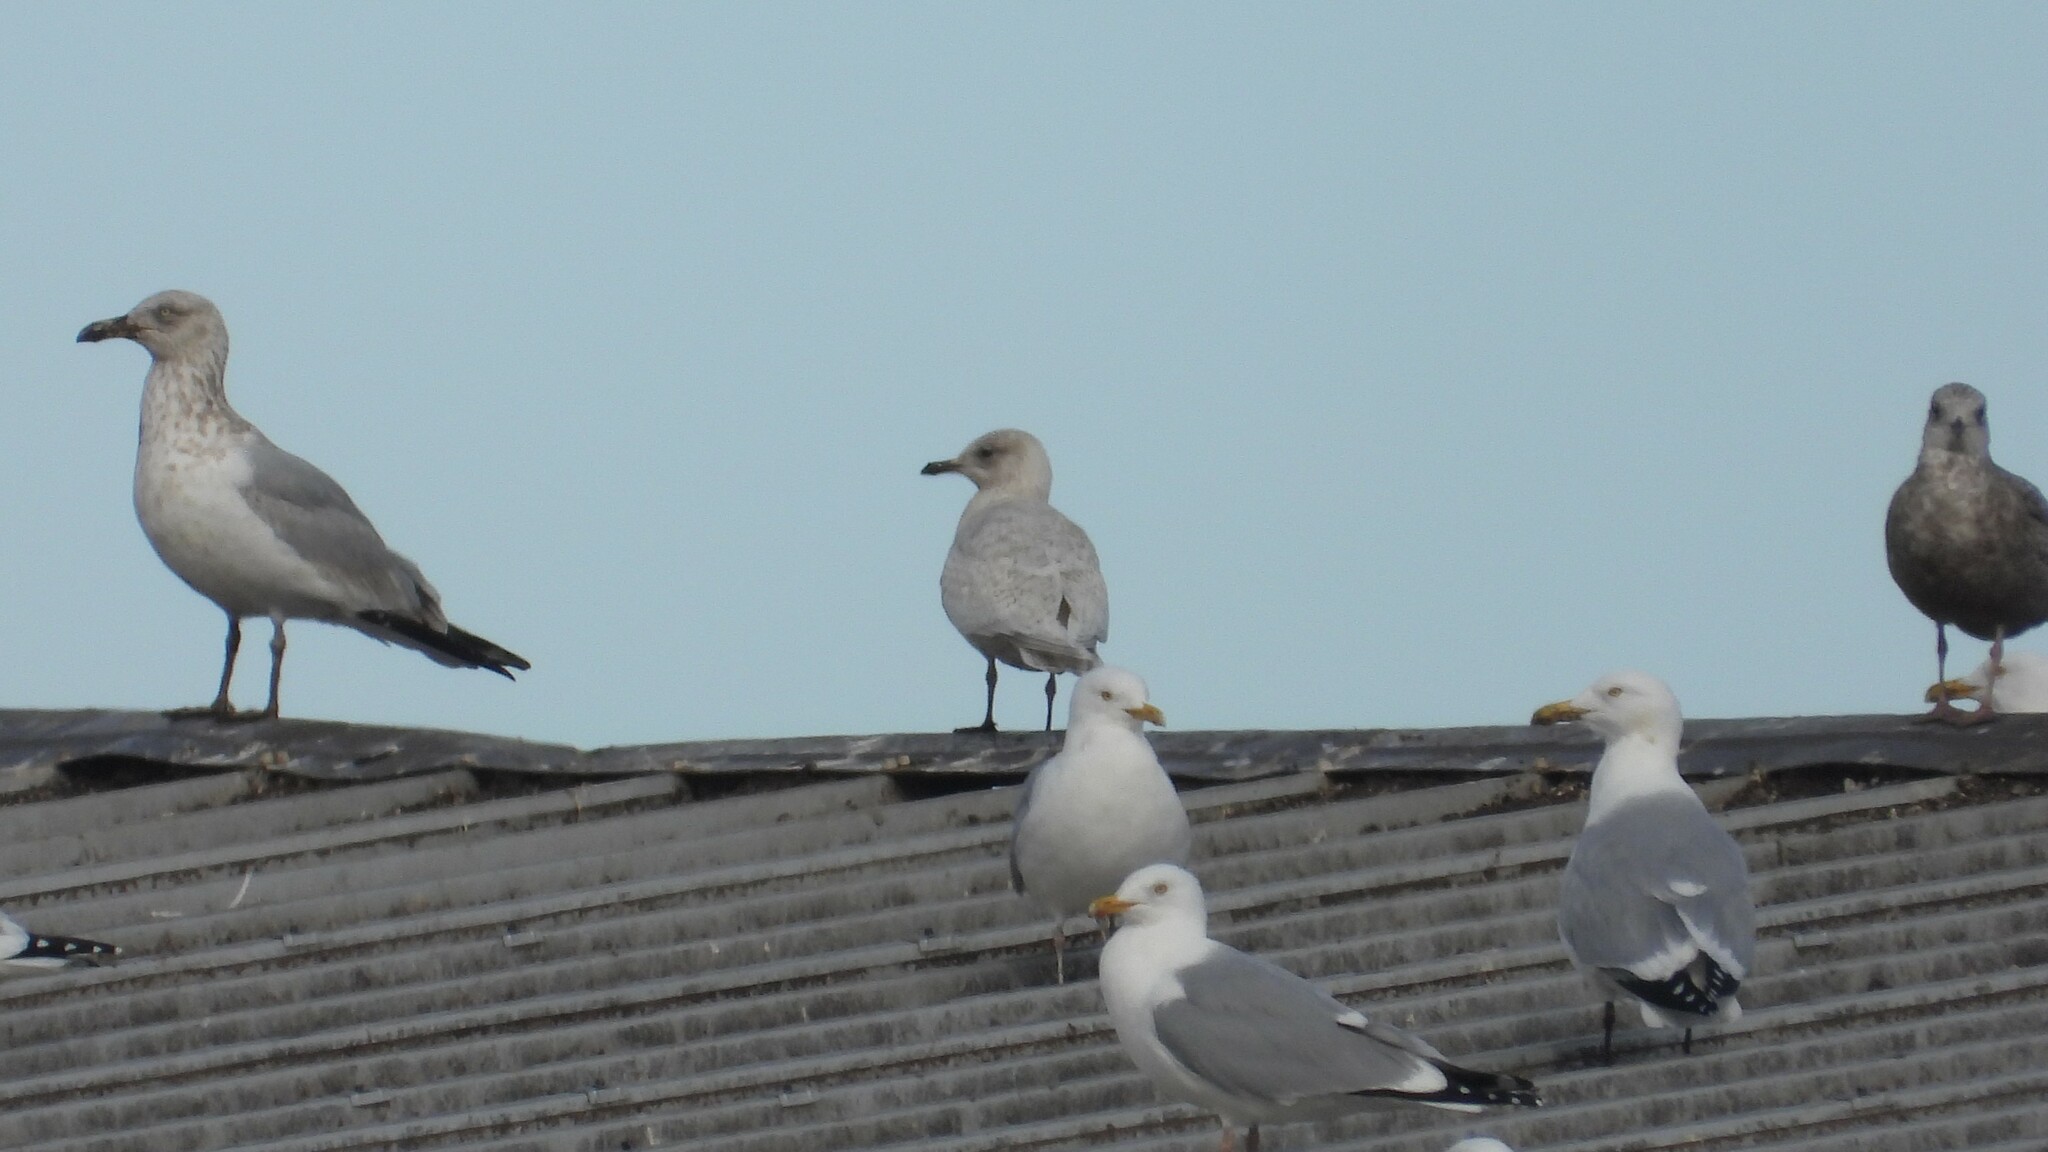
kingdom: Animalia
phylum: Chordata
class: Aves
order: Charadriiformes
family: Laridae
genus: Larus
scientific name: Larus glaucoides
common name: Iceland gull
